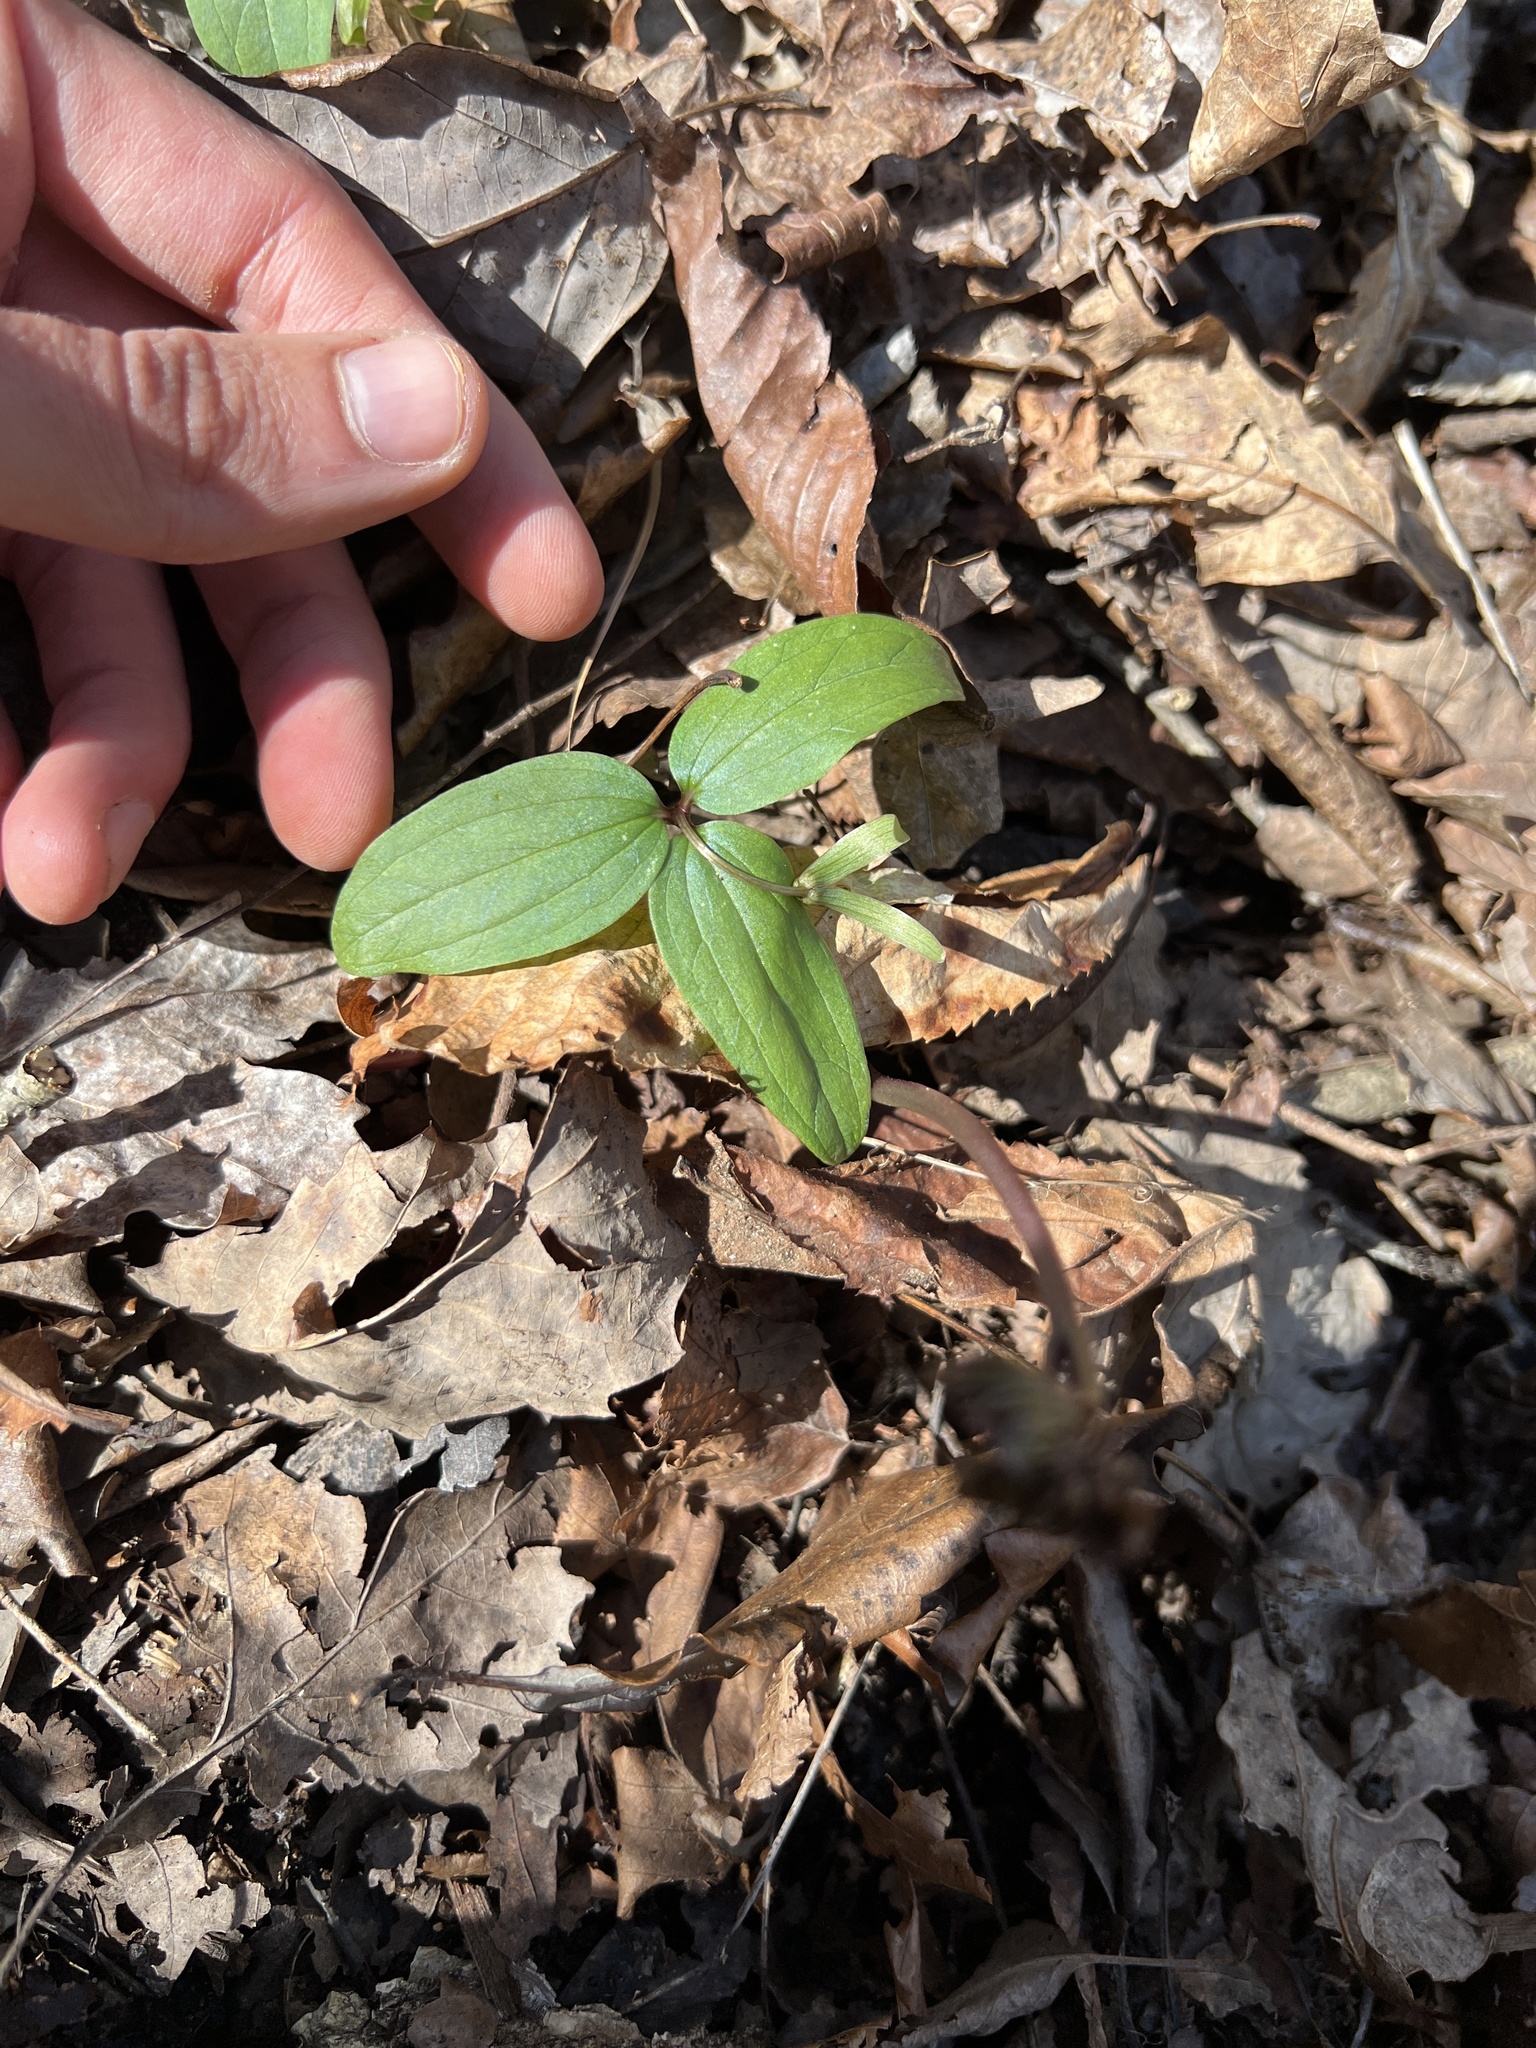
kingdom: Plantae
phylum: Tracheophyta
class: Liliopsida
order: Liliales
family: Melanthiaceae
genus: Trillium
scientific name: Trillium nivale
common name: Dwarf white trillium
